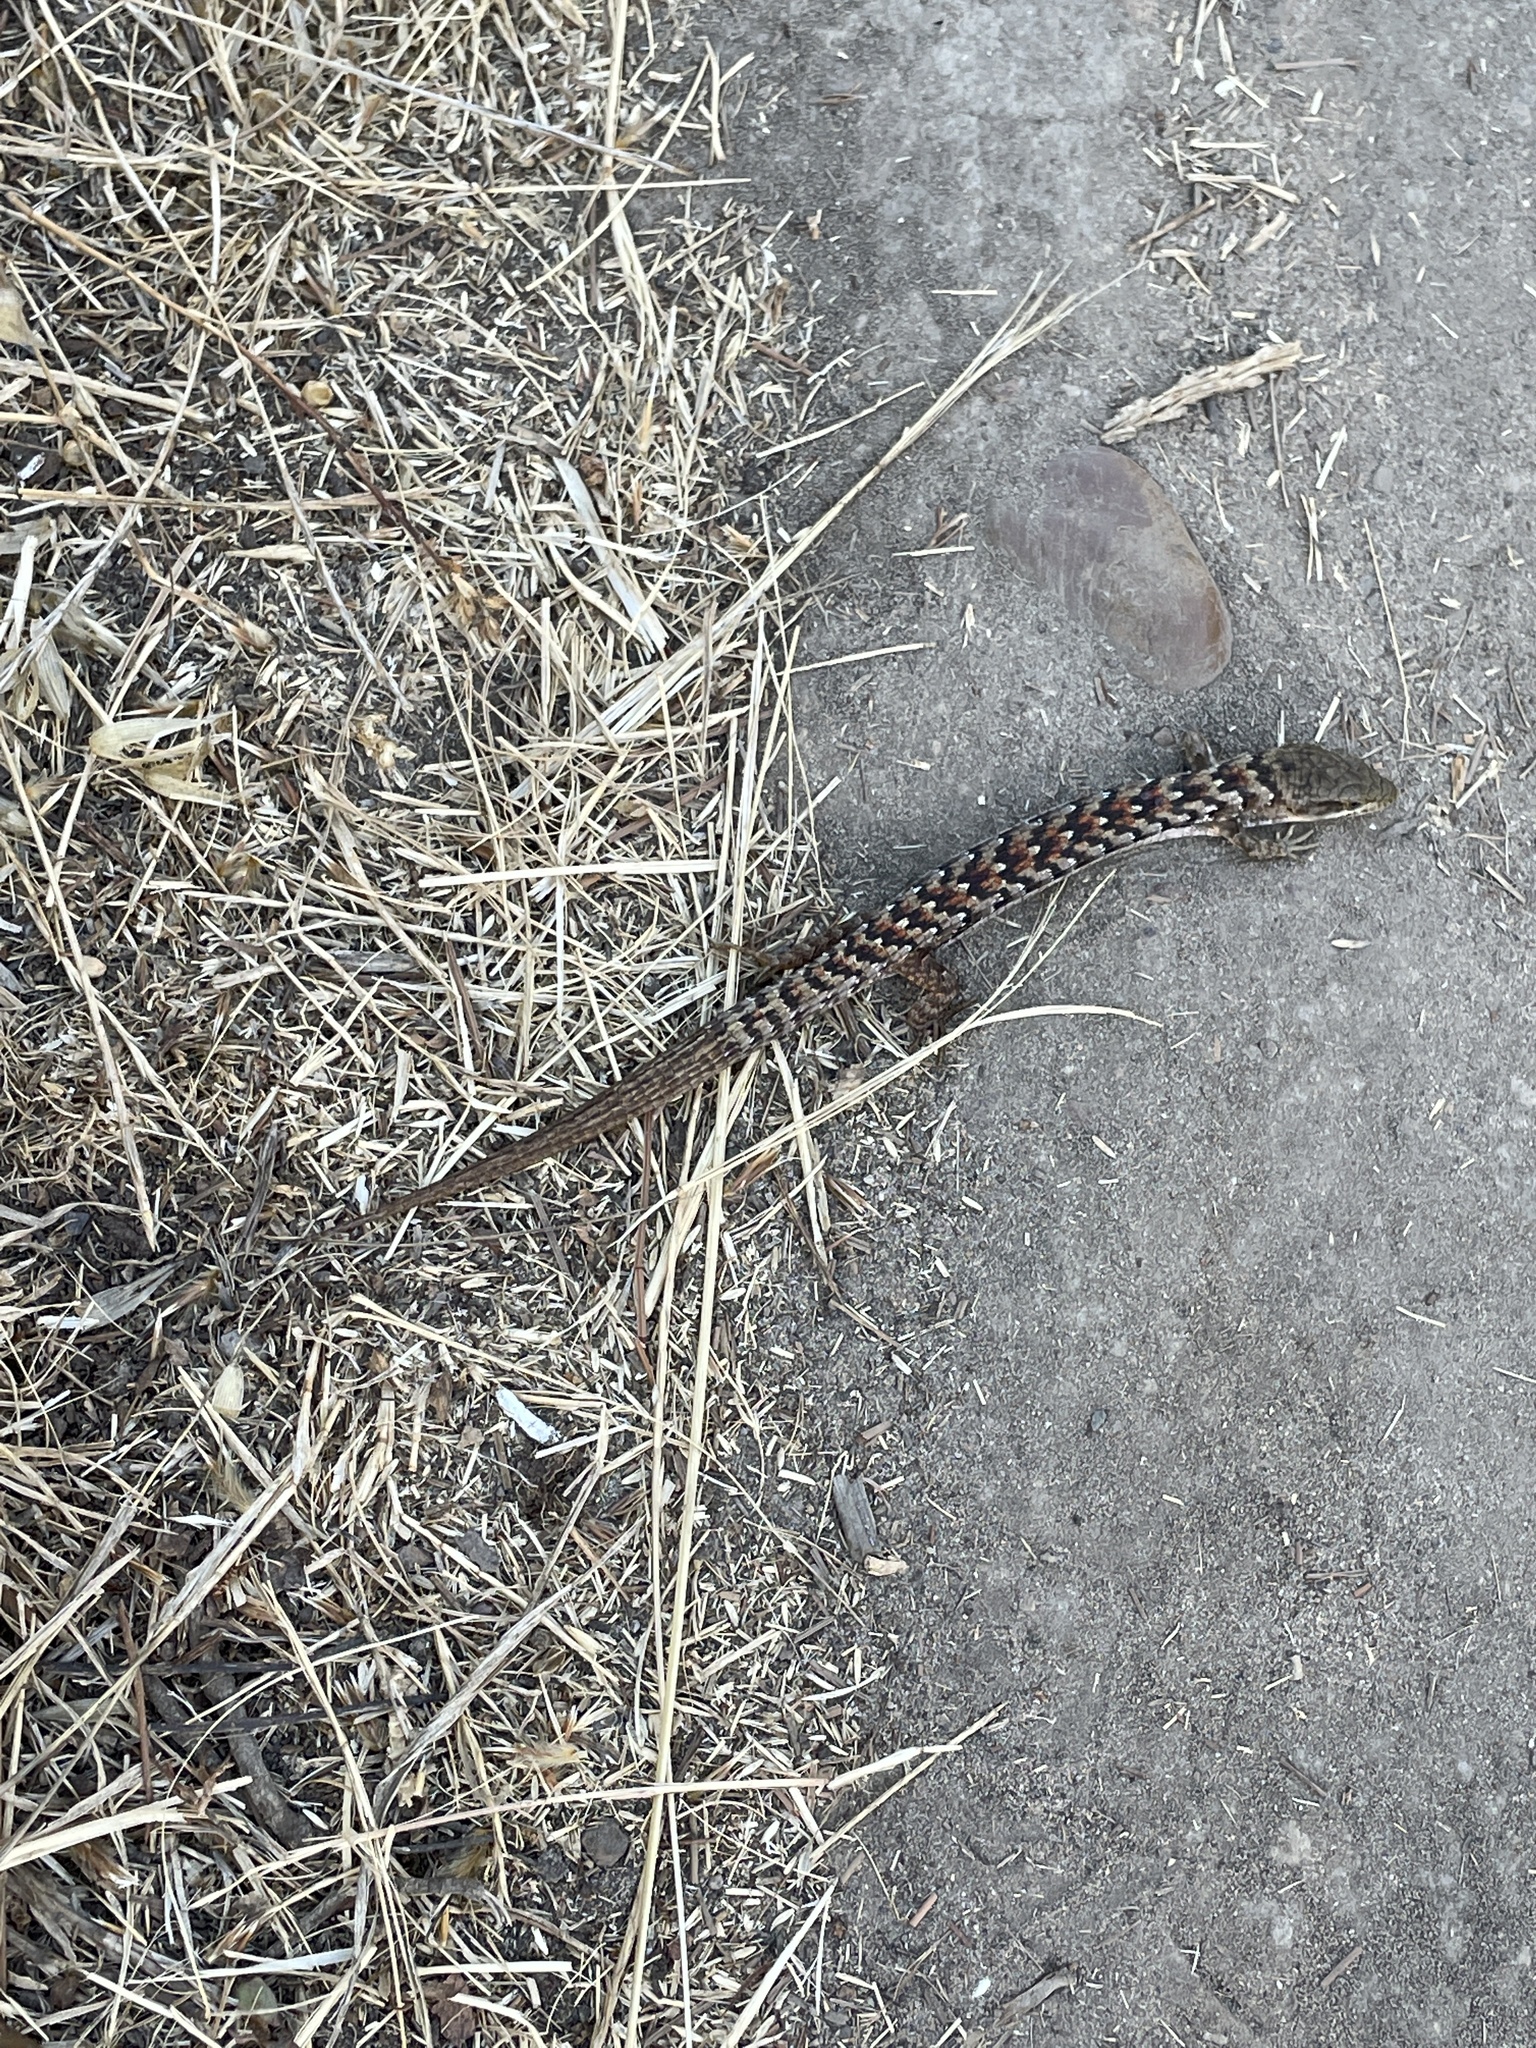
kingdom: Animalia
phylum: Chordata
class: Squamata
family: Anguidae
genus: Elgaria
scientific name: Elgaria multicarinata
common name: Southern alligator lizard
